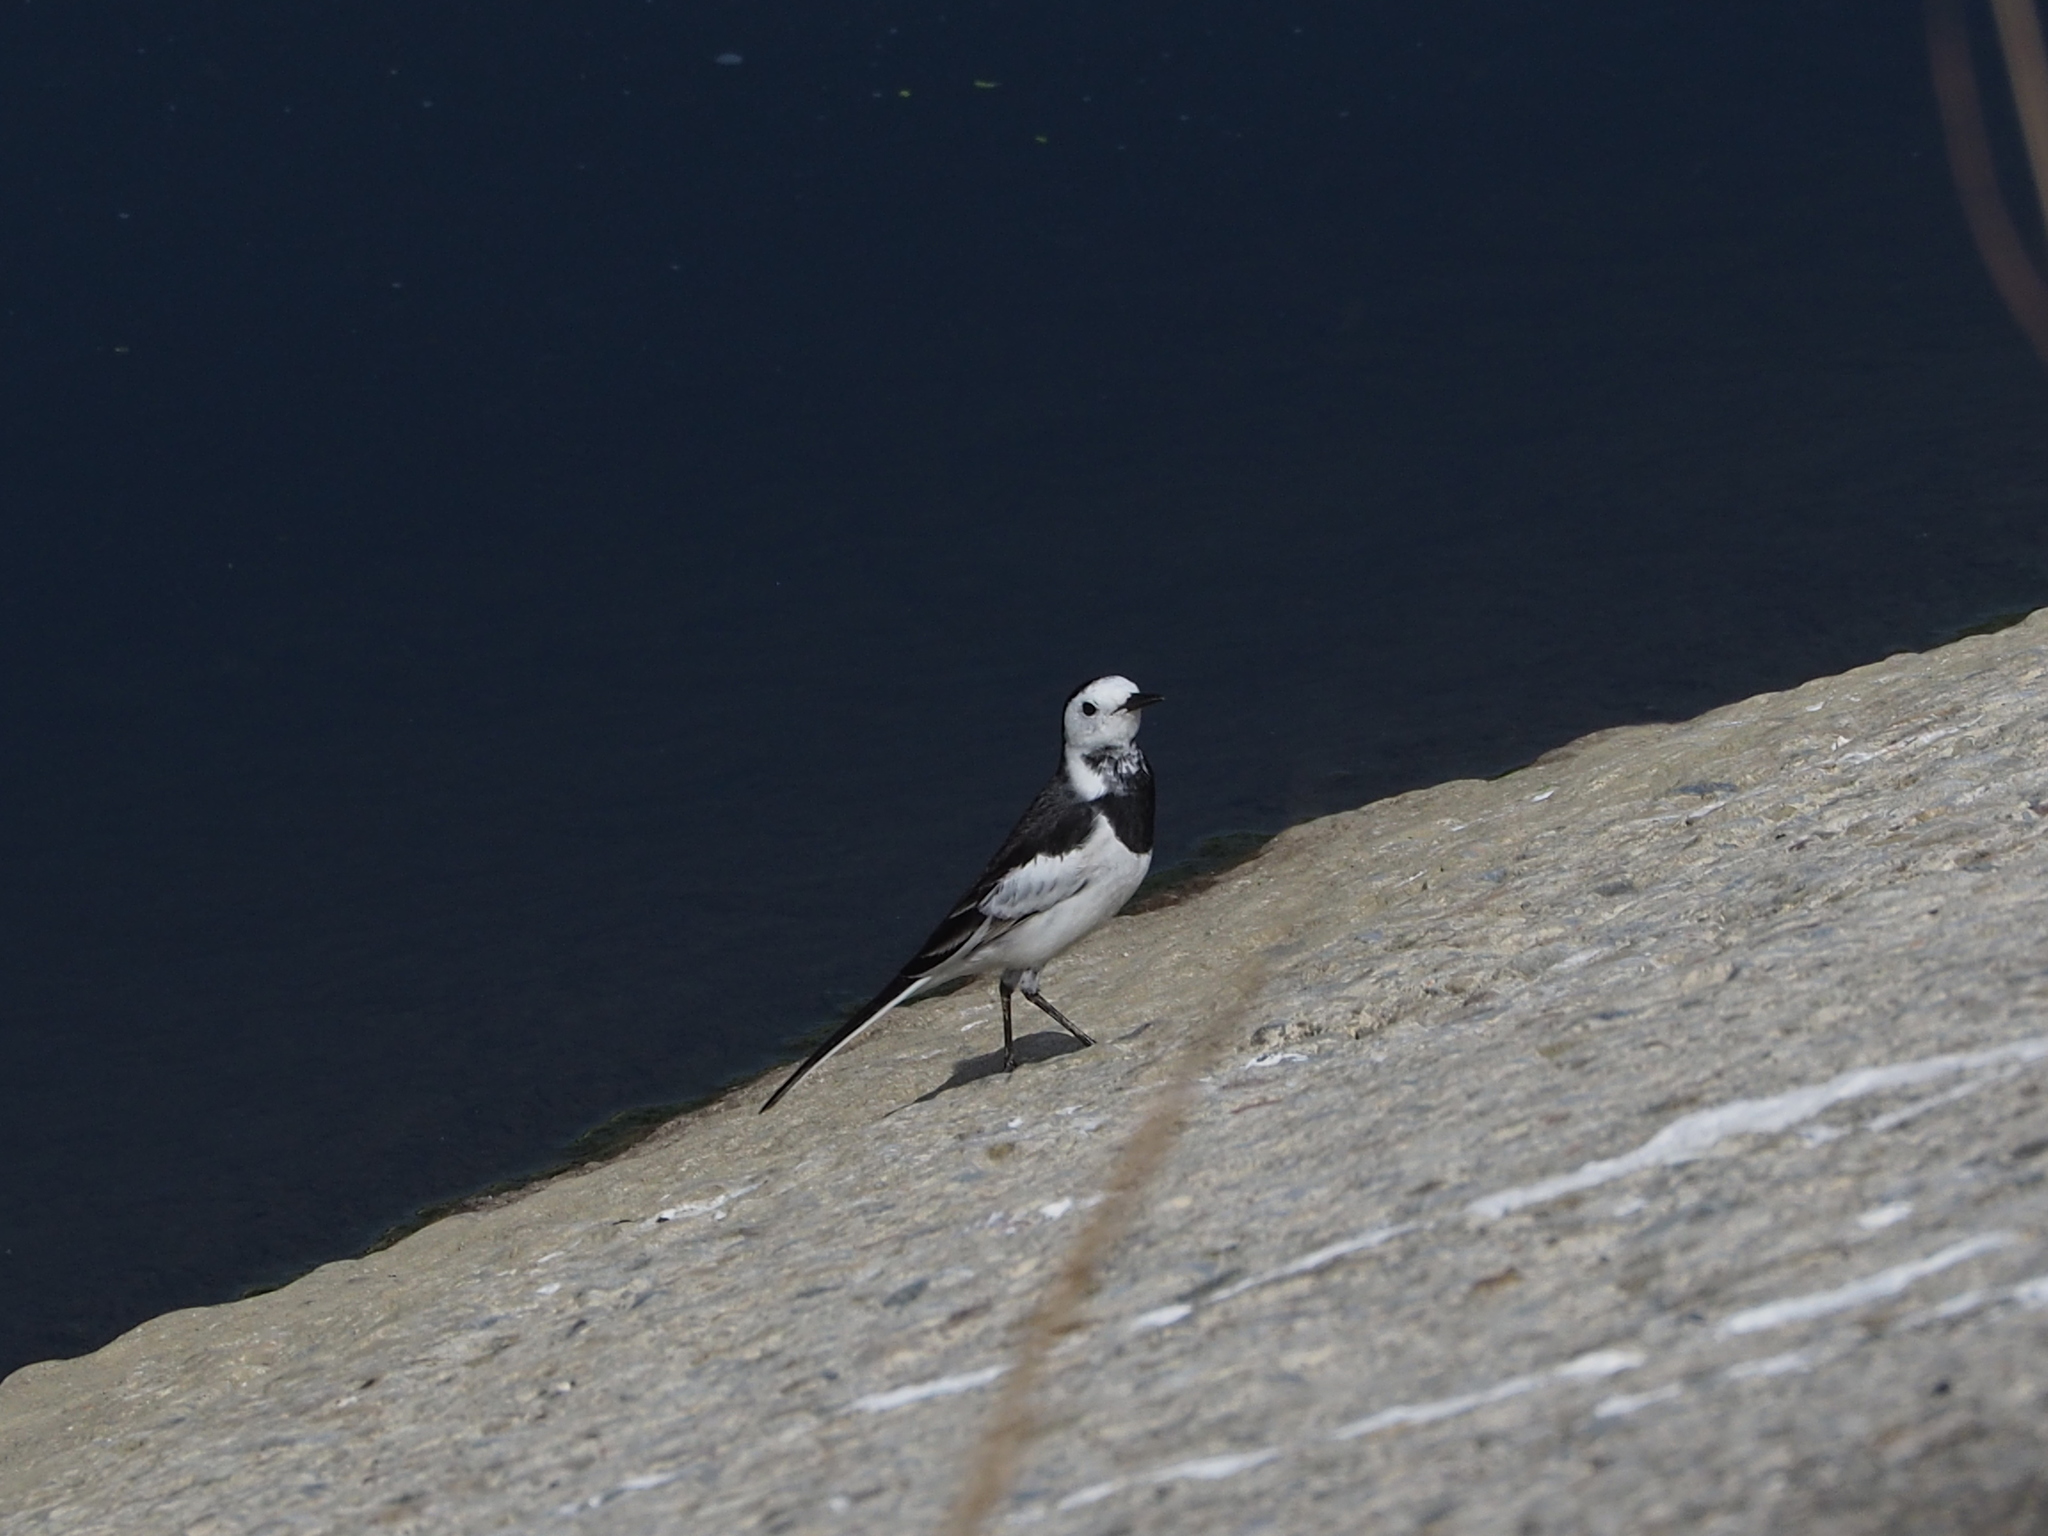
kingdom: Animalia
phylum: Chordata
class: Aves
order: Passeriformes
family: Motacillidae
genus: Motacilla
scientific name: Motacilla alba
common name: White wagtail
